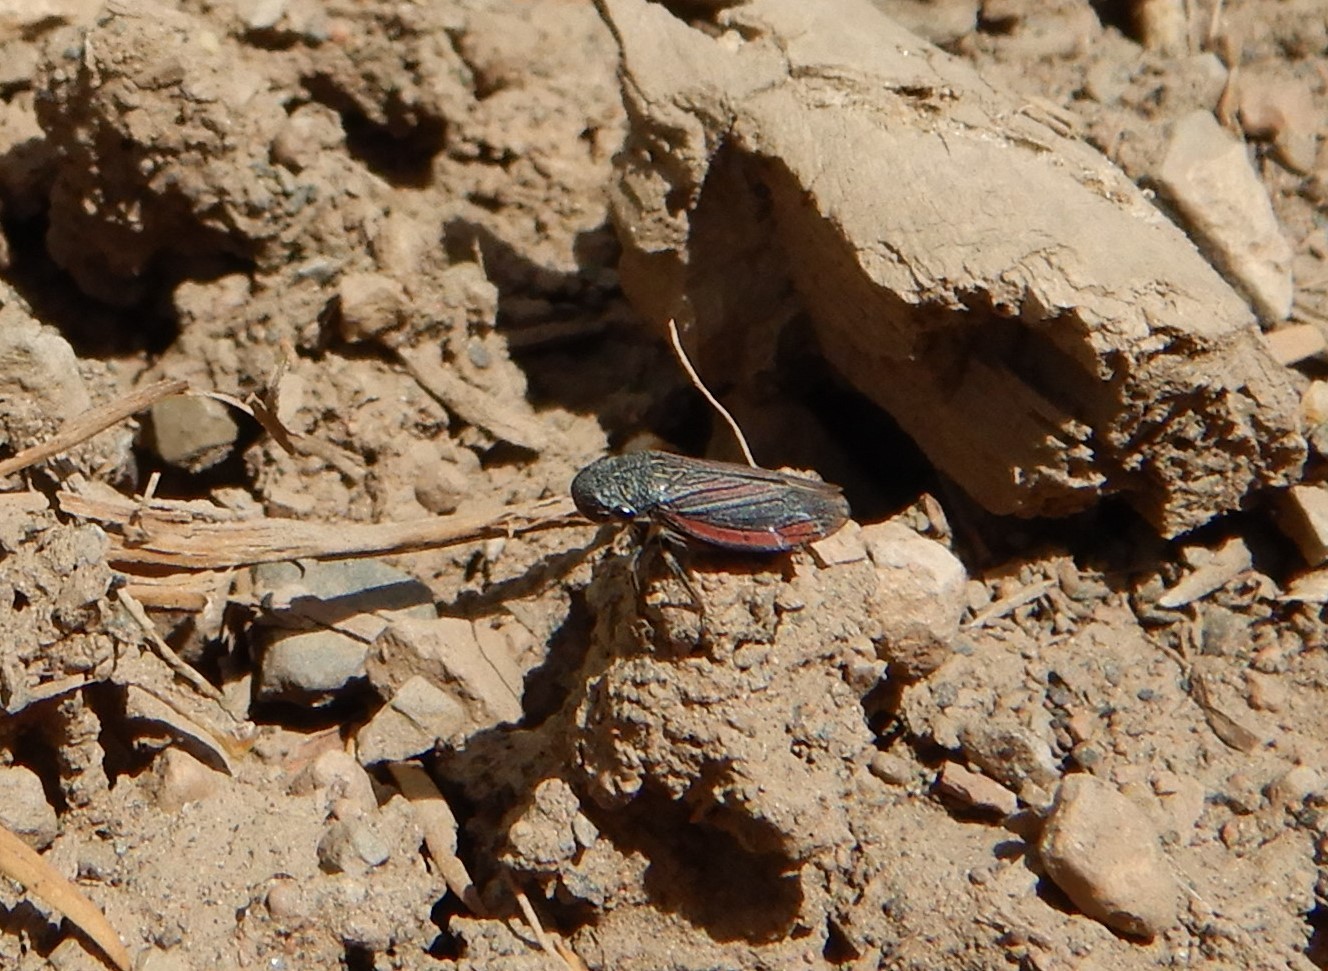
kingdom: Animalia
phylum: Arthropoda
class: Insecta
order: Hemiptera
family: Cicadellidae
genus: Cuerna
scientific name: Cuerna striata
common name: Striped leafhopper
